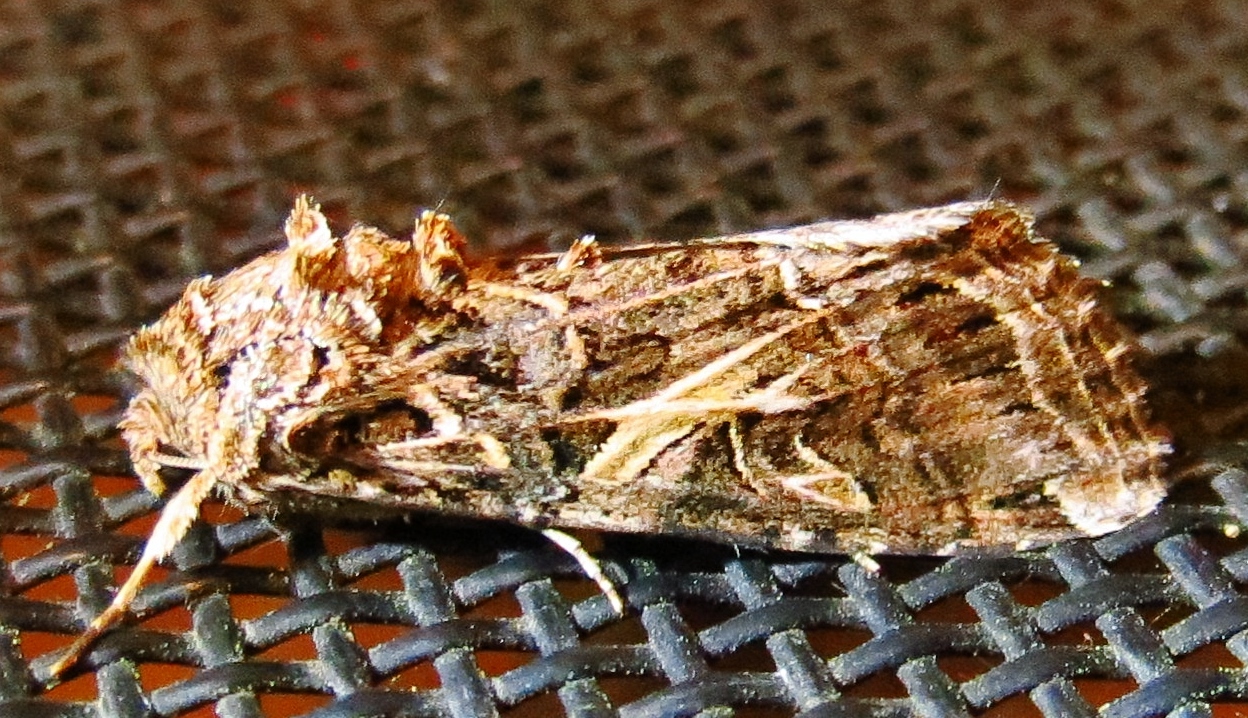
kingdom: Animalia
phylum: Arthropoda
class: Insecta
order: Lepidoptera
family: Noctuidae
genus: Spodoptera
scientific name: Spodoptera ornithogalli
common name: Yellow-striped armyworm
